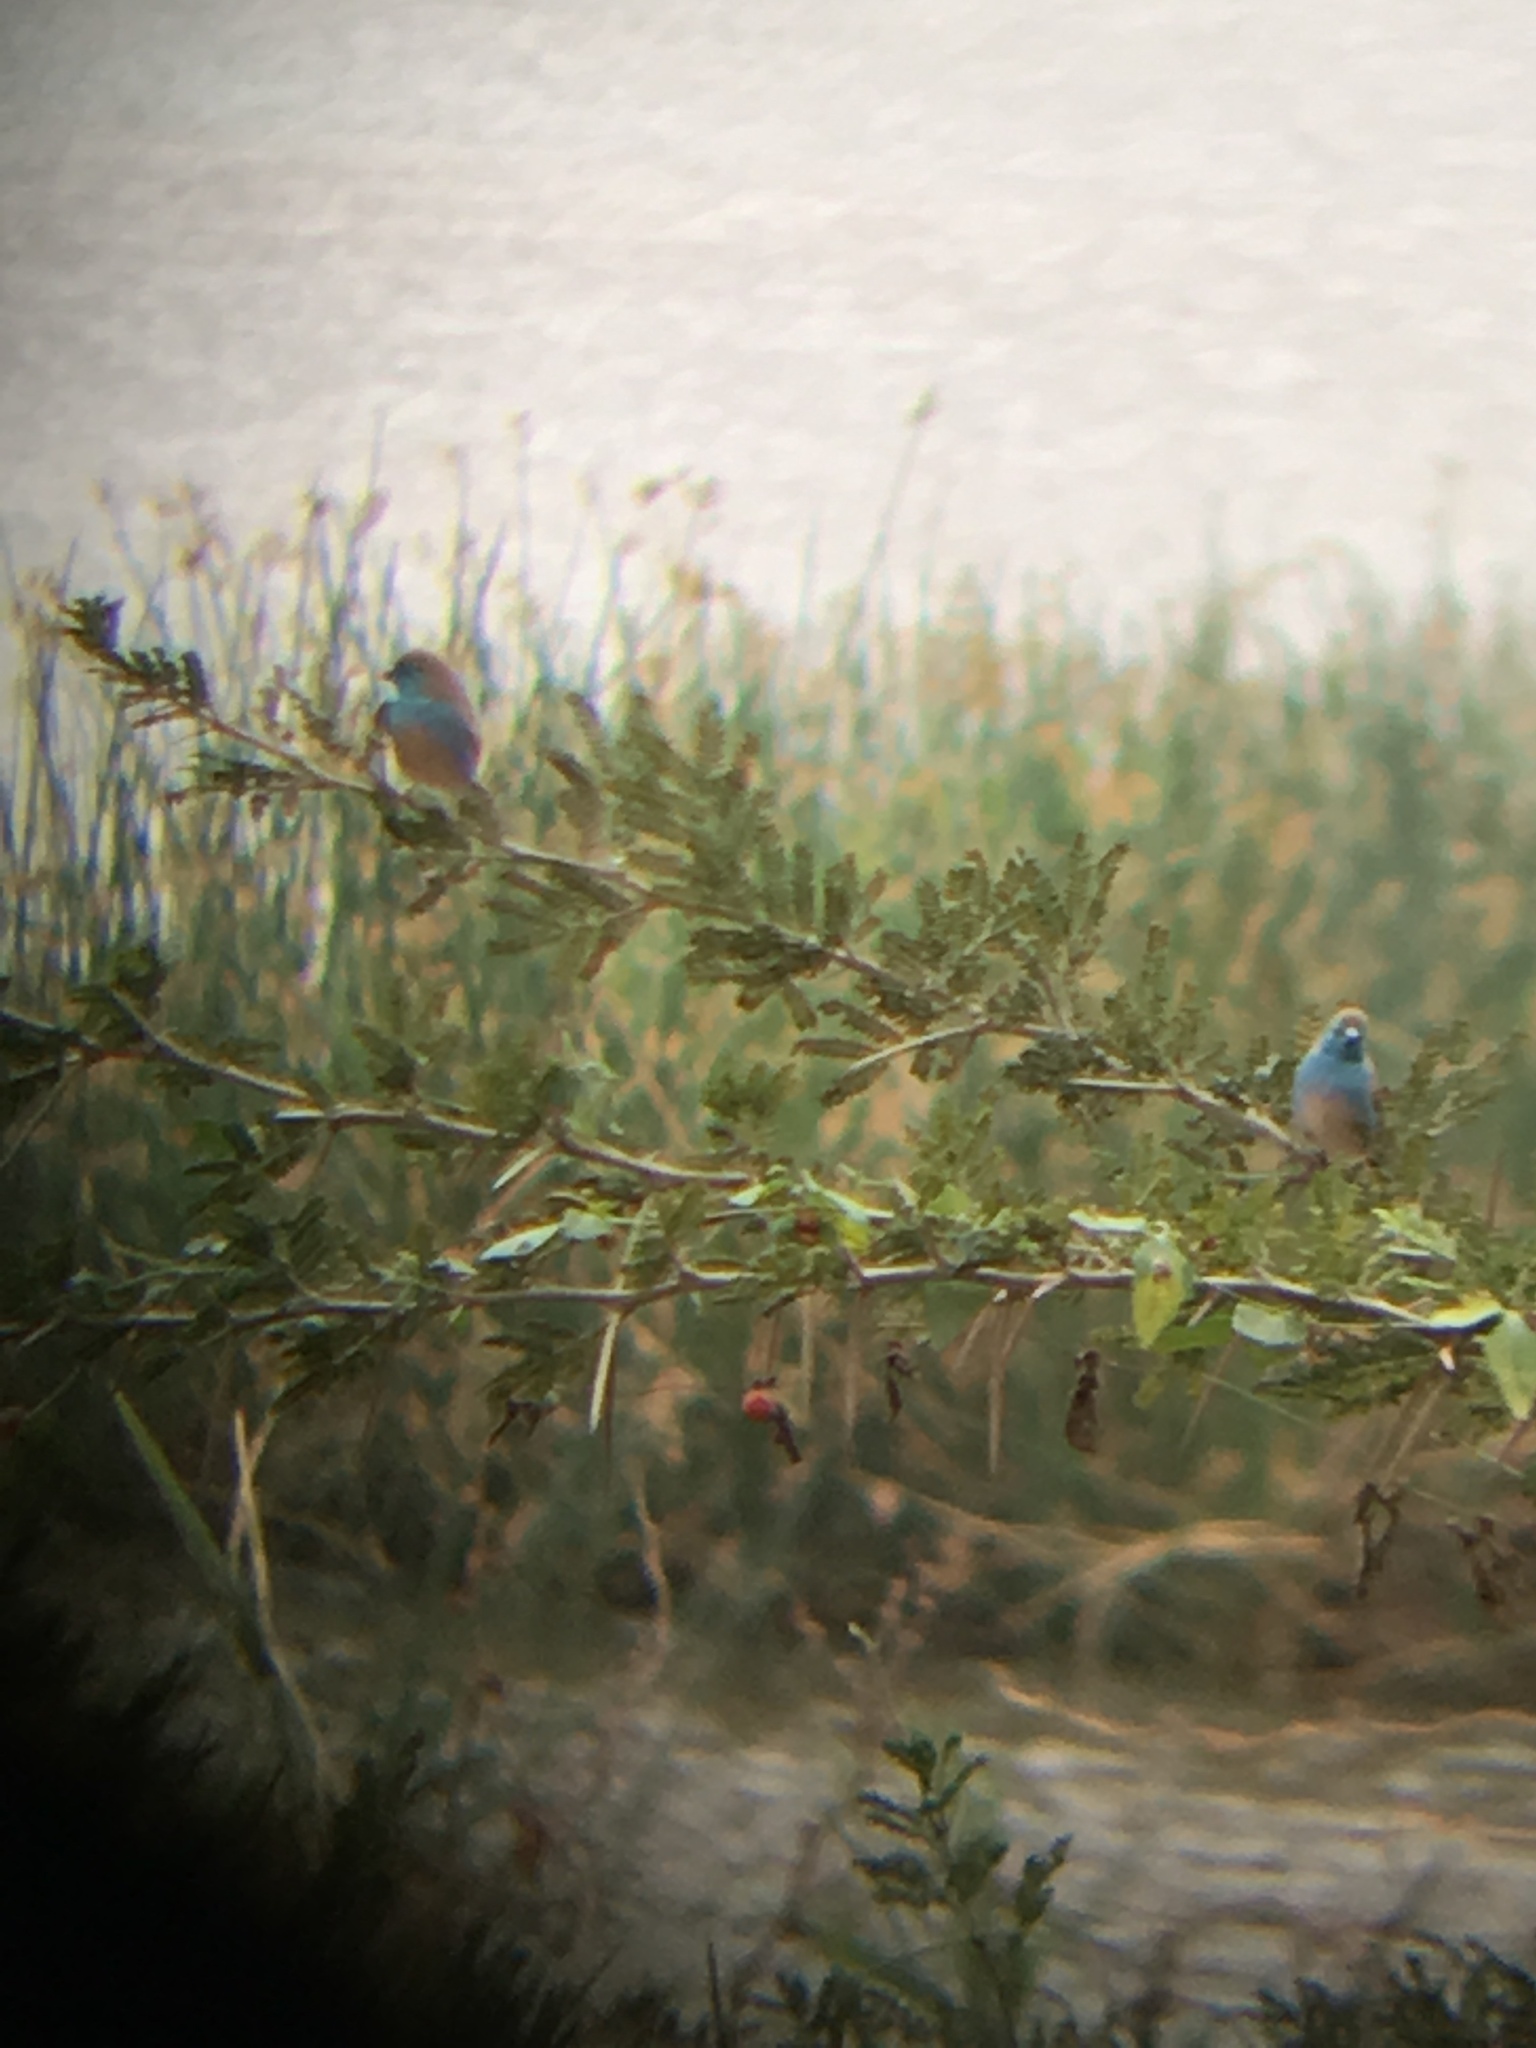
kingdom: Animalia
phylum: Chordata
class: Aves
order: Passeriformes
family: Estrildidae
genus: Uraeginthus
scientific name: Uraeginthus angolensis
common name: Blue waxbill
